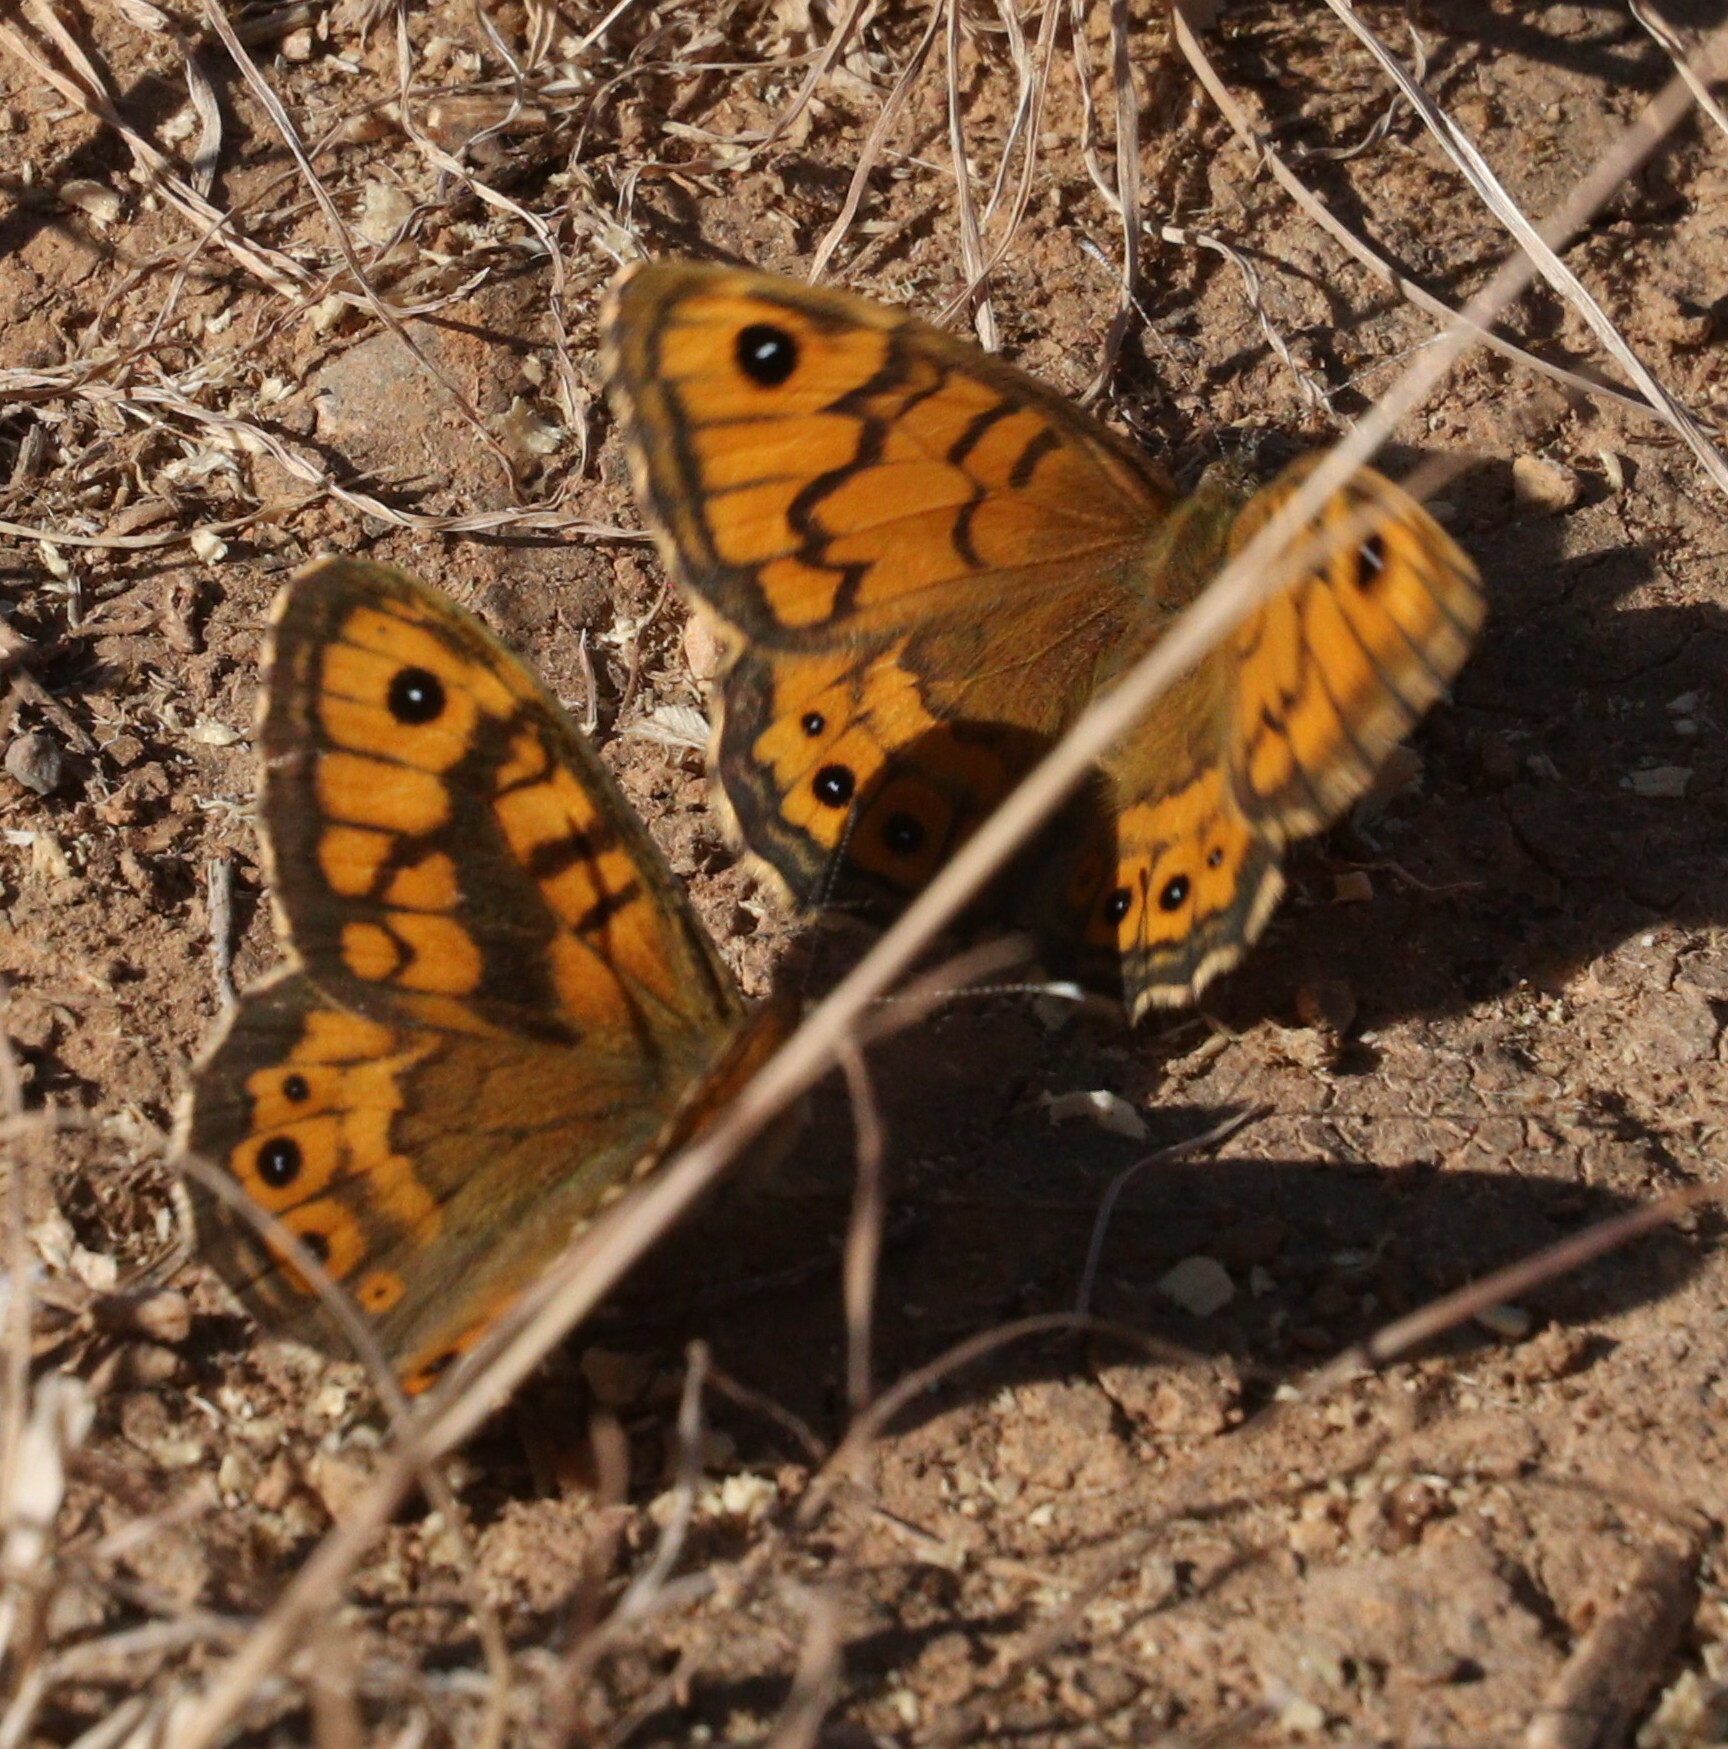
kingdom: Animalia
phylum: Arthropoda
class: Insecta
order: Lepidoptera
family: Nymphalidae
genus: Pararge
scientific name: Pararge Lasiommata megera
